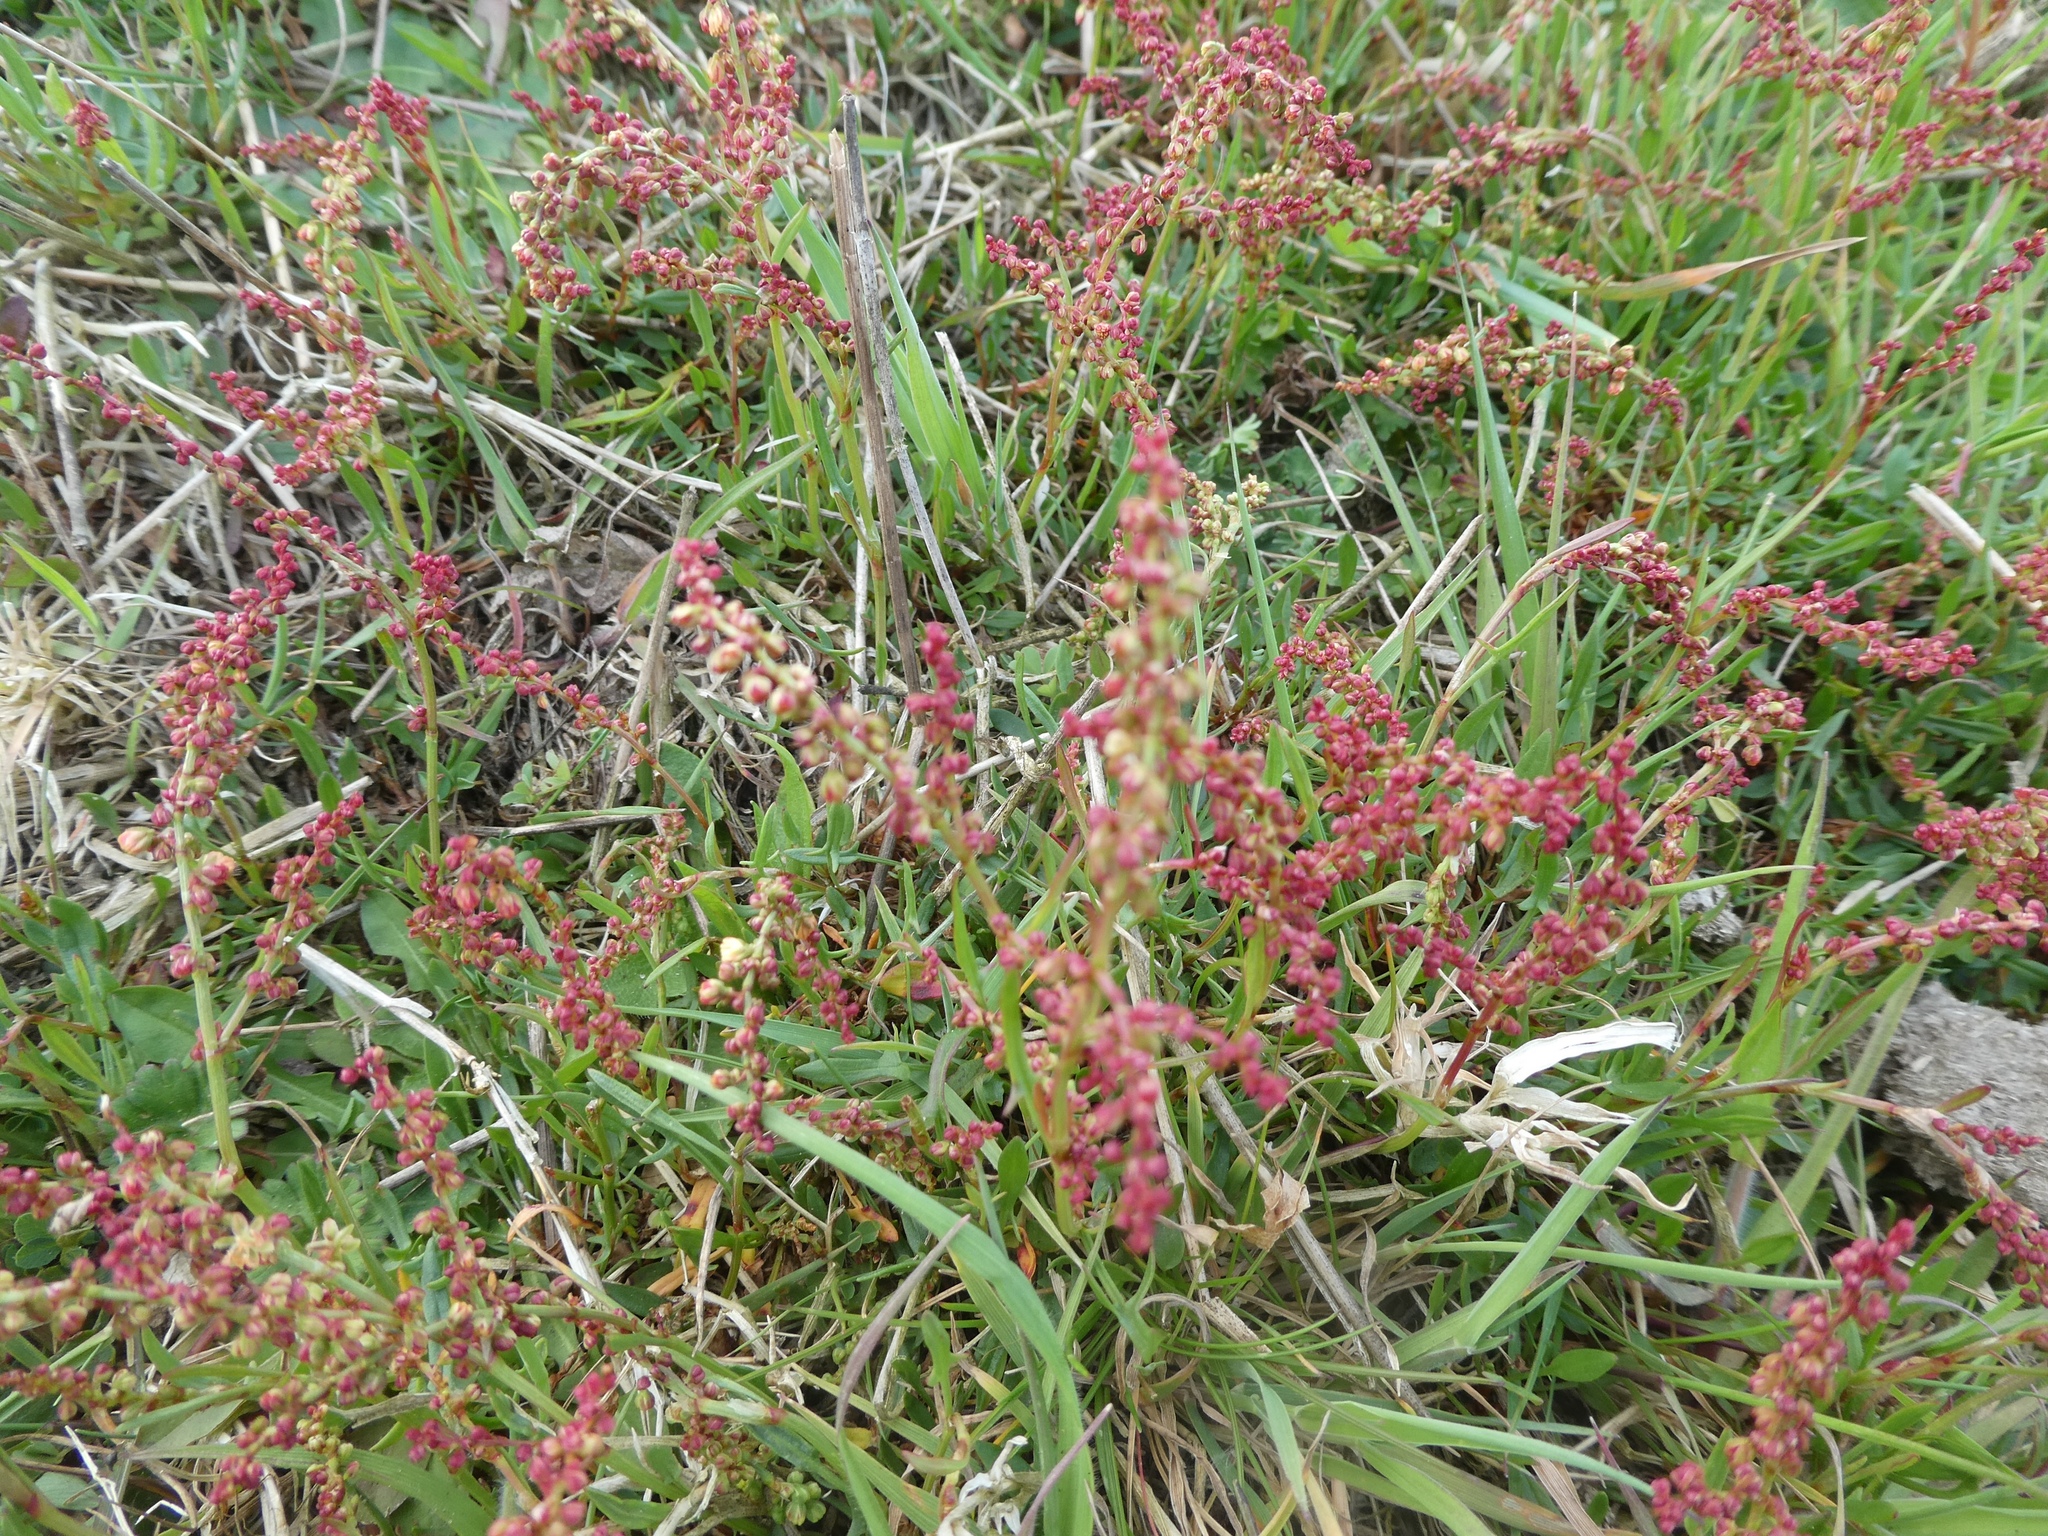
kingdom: Plantae
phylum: Tracheophyta
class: Magnoliopsida
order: Caryophyllales
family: Polygonaceae
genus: Rumex
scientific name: Rumex acetosella
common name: Common sheep sorrel
